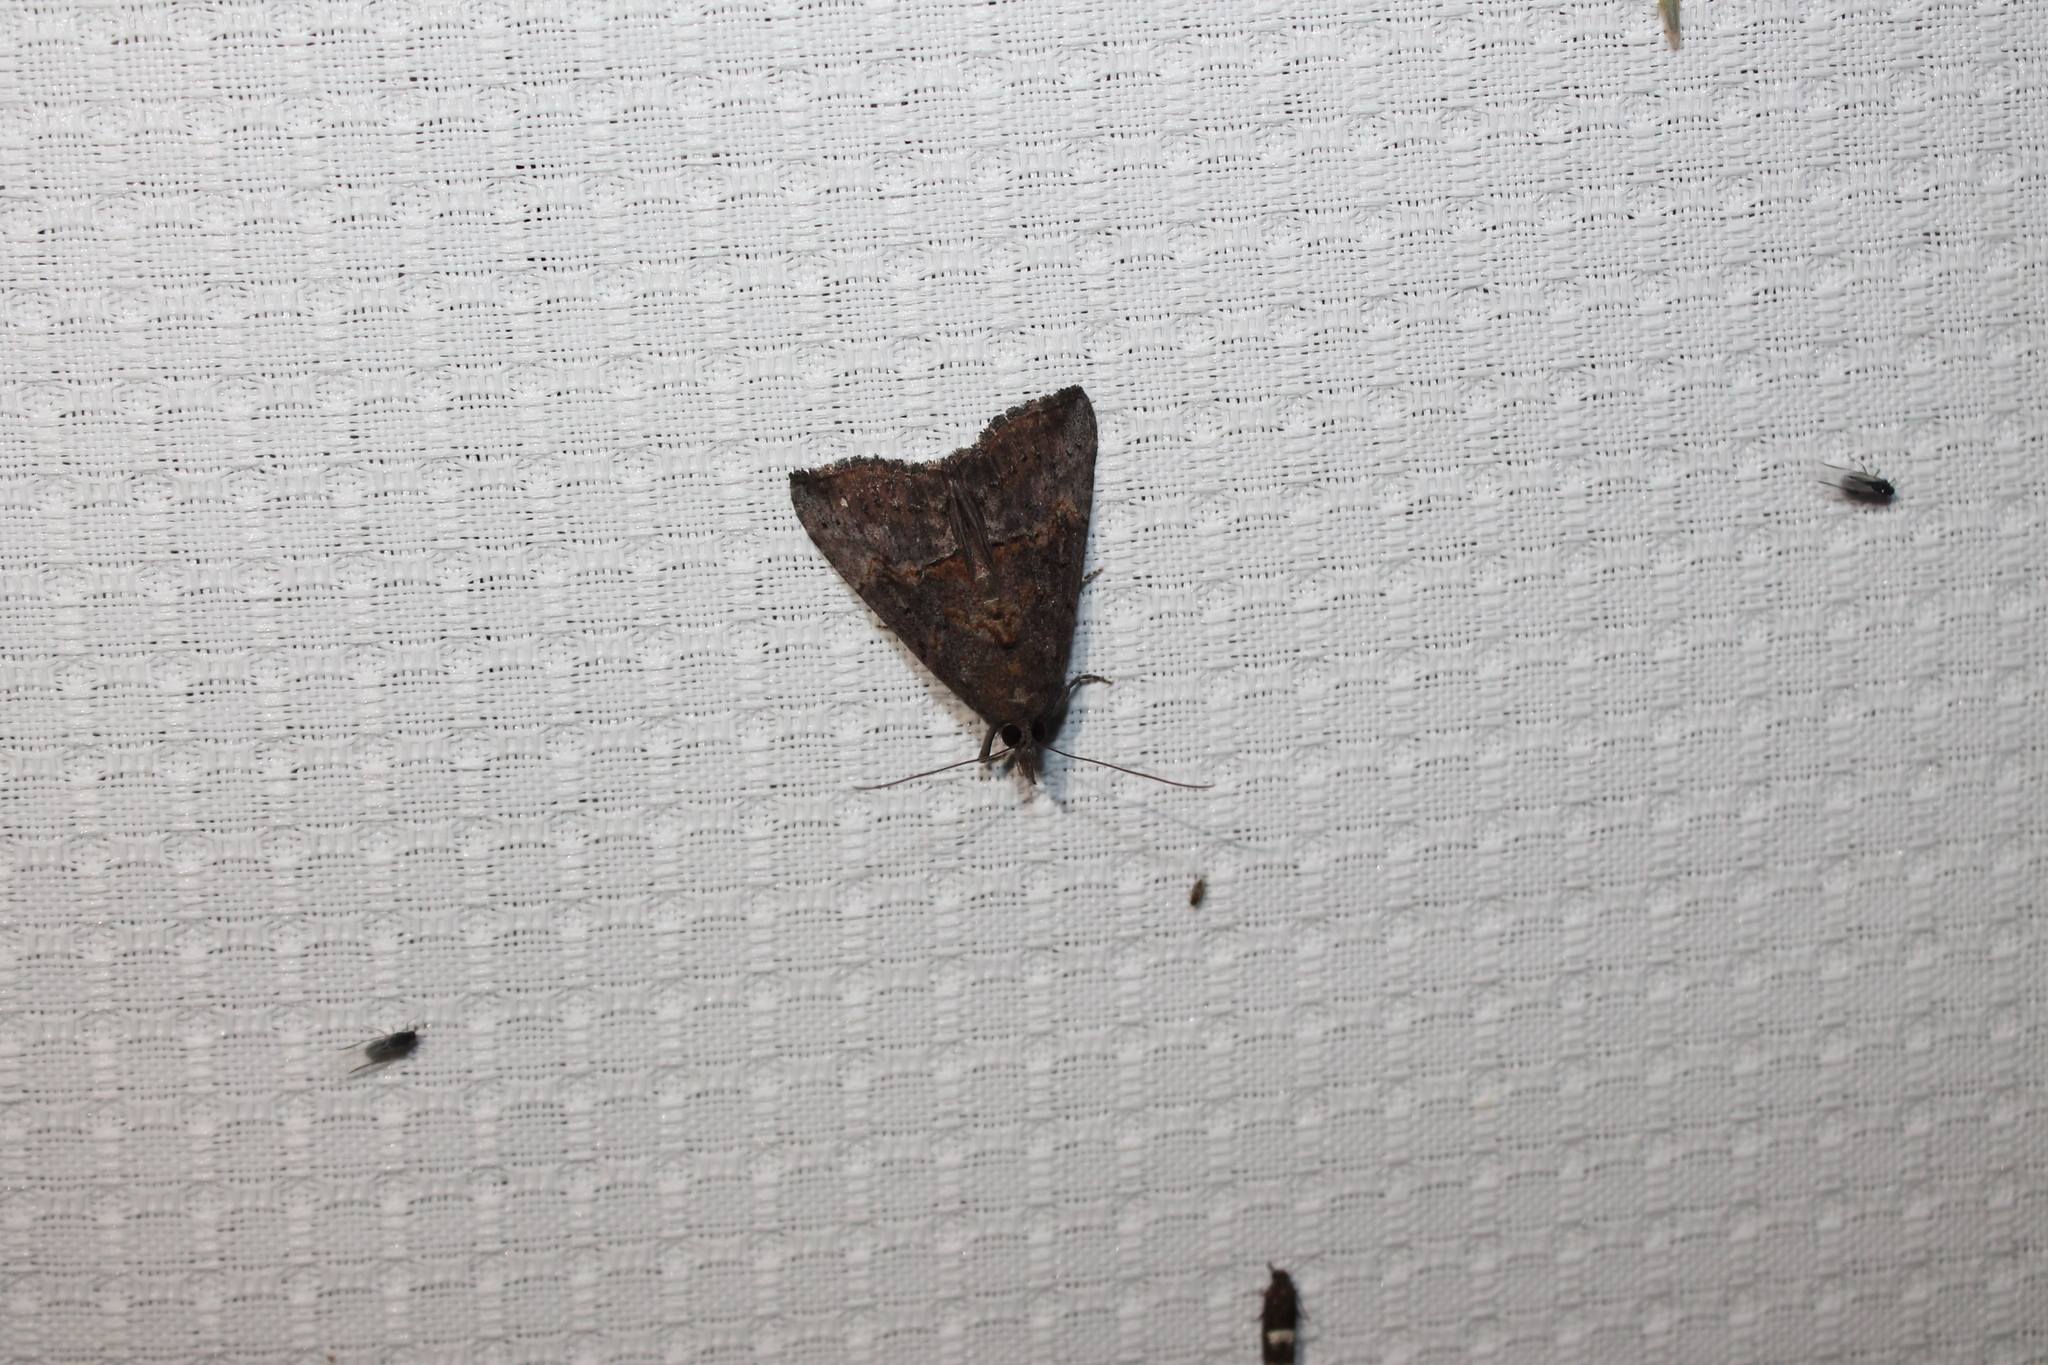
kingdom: Animalia
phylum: Arthropoda
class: Insecta
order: Lepidoptera
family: Erebidae
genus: Hypena
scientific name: Hypena scabra
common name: Green cloverworm
